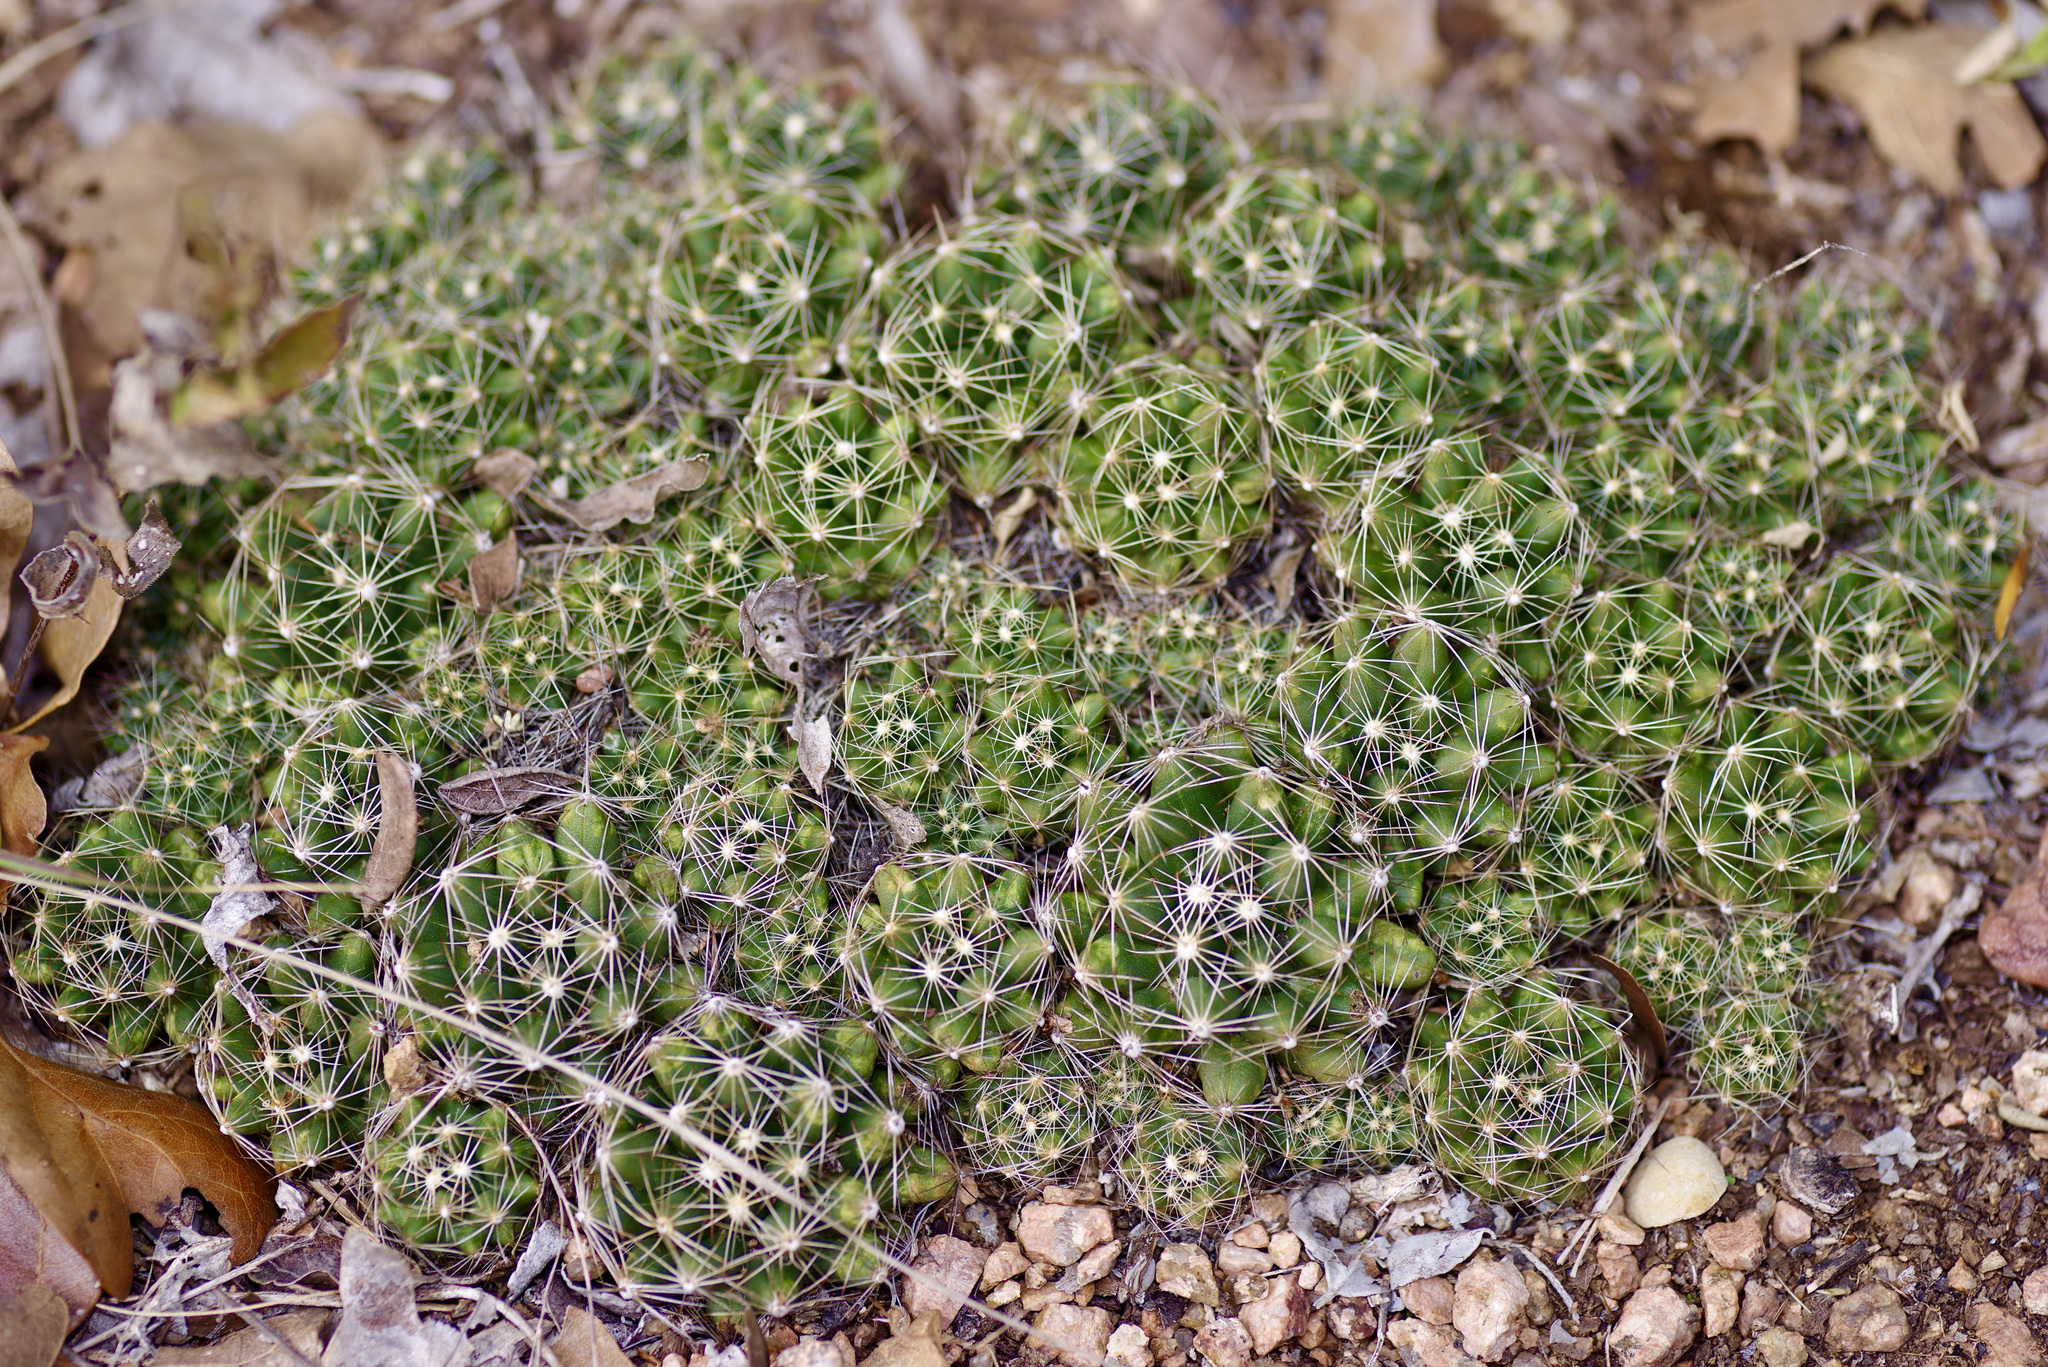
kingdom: Plantae
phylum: Tracheophyta
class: Magnoliopsida
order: Caryophyllales
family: Cactaceae
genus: Pelecyphora
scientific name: Pelecyphora missouriensis
